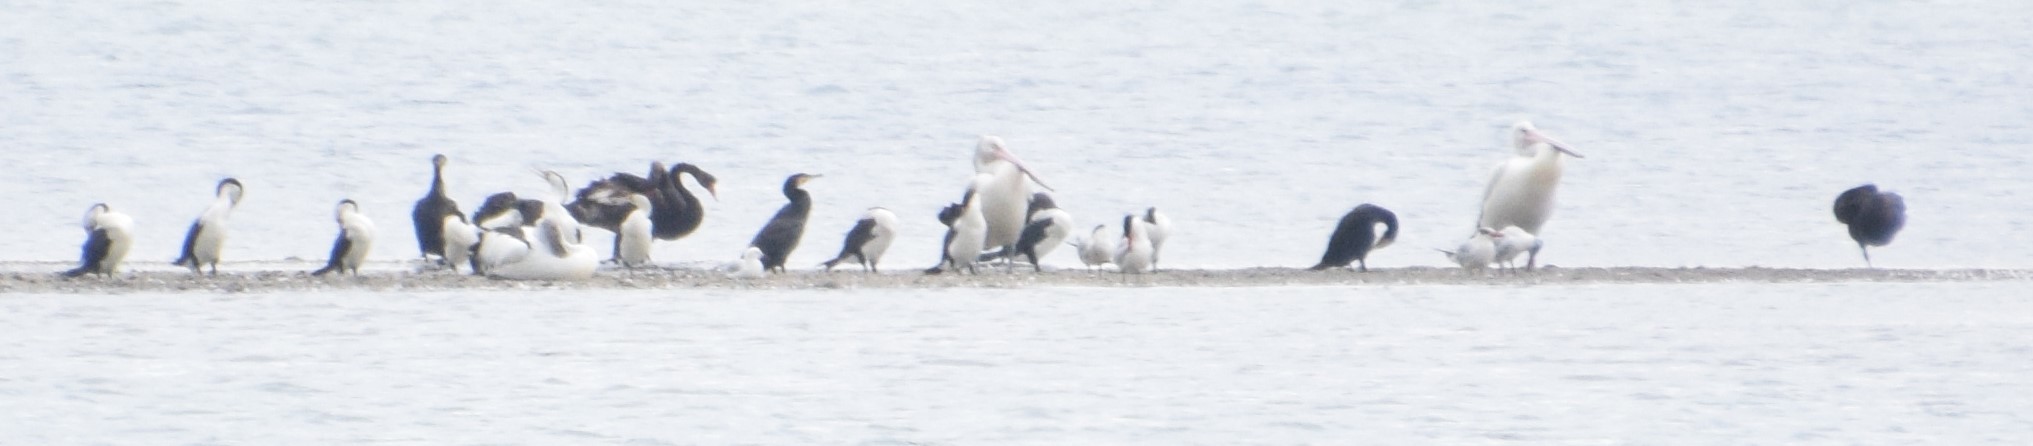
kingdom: Animalia
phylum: Chordata
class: Aves
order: Suliformes
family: Phalacrocoracidae
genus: Phalacrocorax
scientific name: Phalacrocorax carbo
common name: Great cormorant
